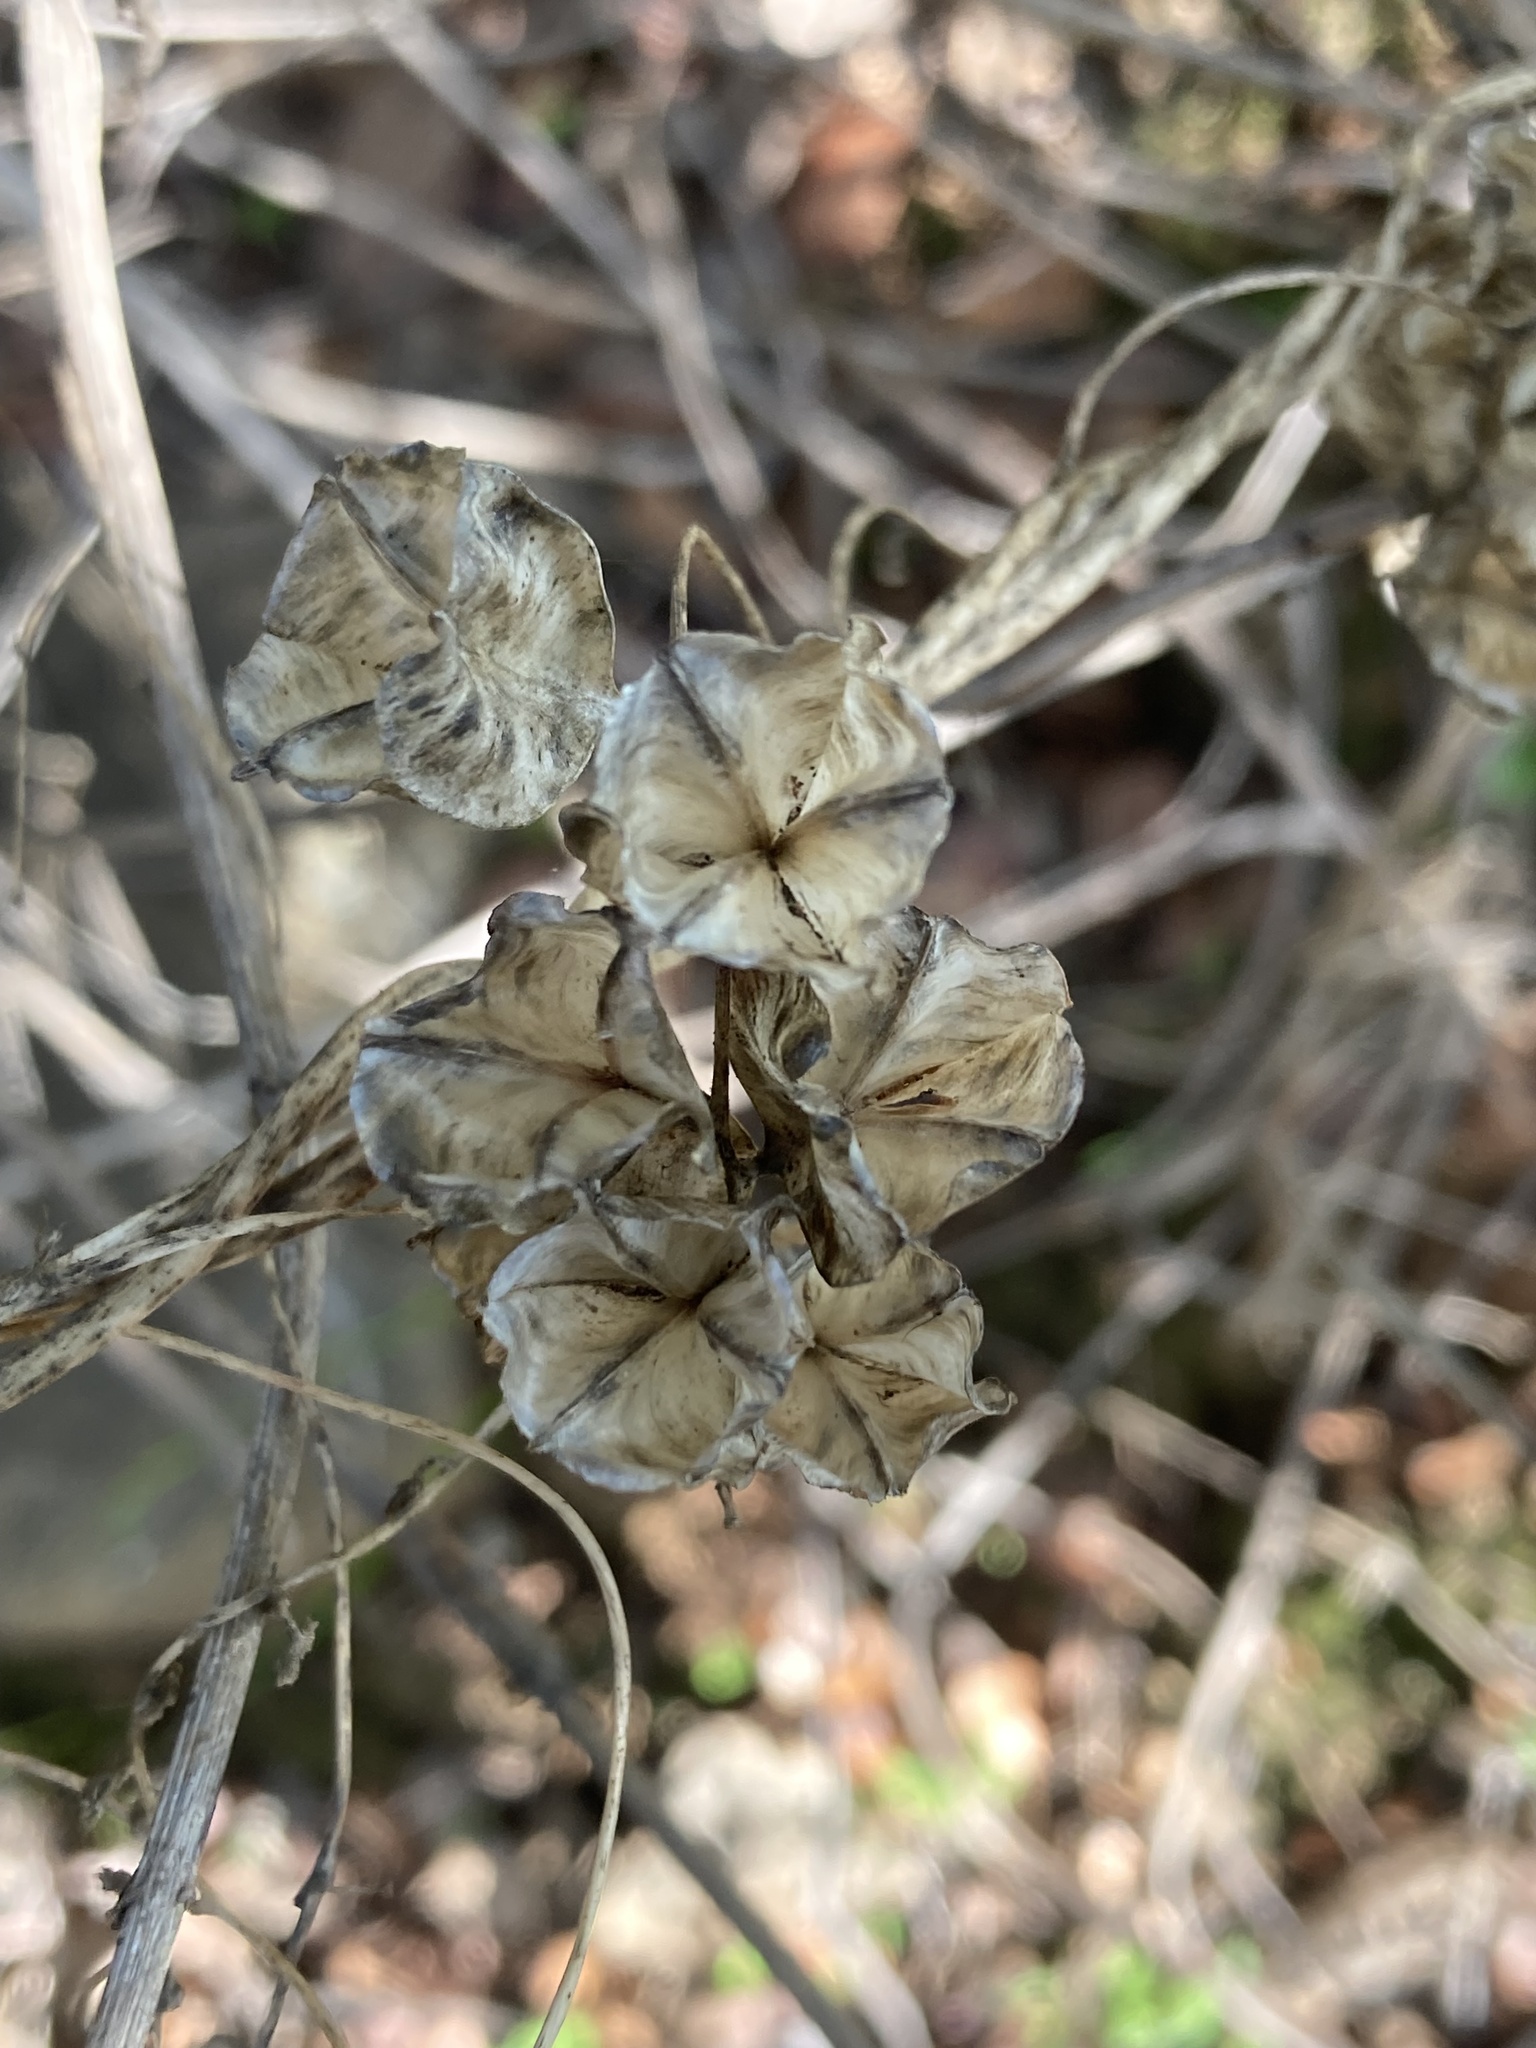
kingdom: Plantae
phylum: Tracheophyta
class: Liliopsida
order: Liliales
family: Alstroemeriaceae
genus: Bomarea
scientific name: Bomarea salsilla
